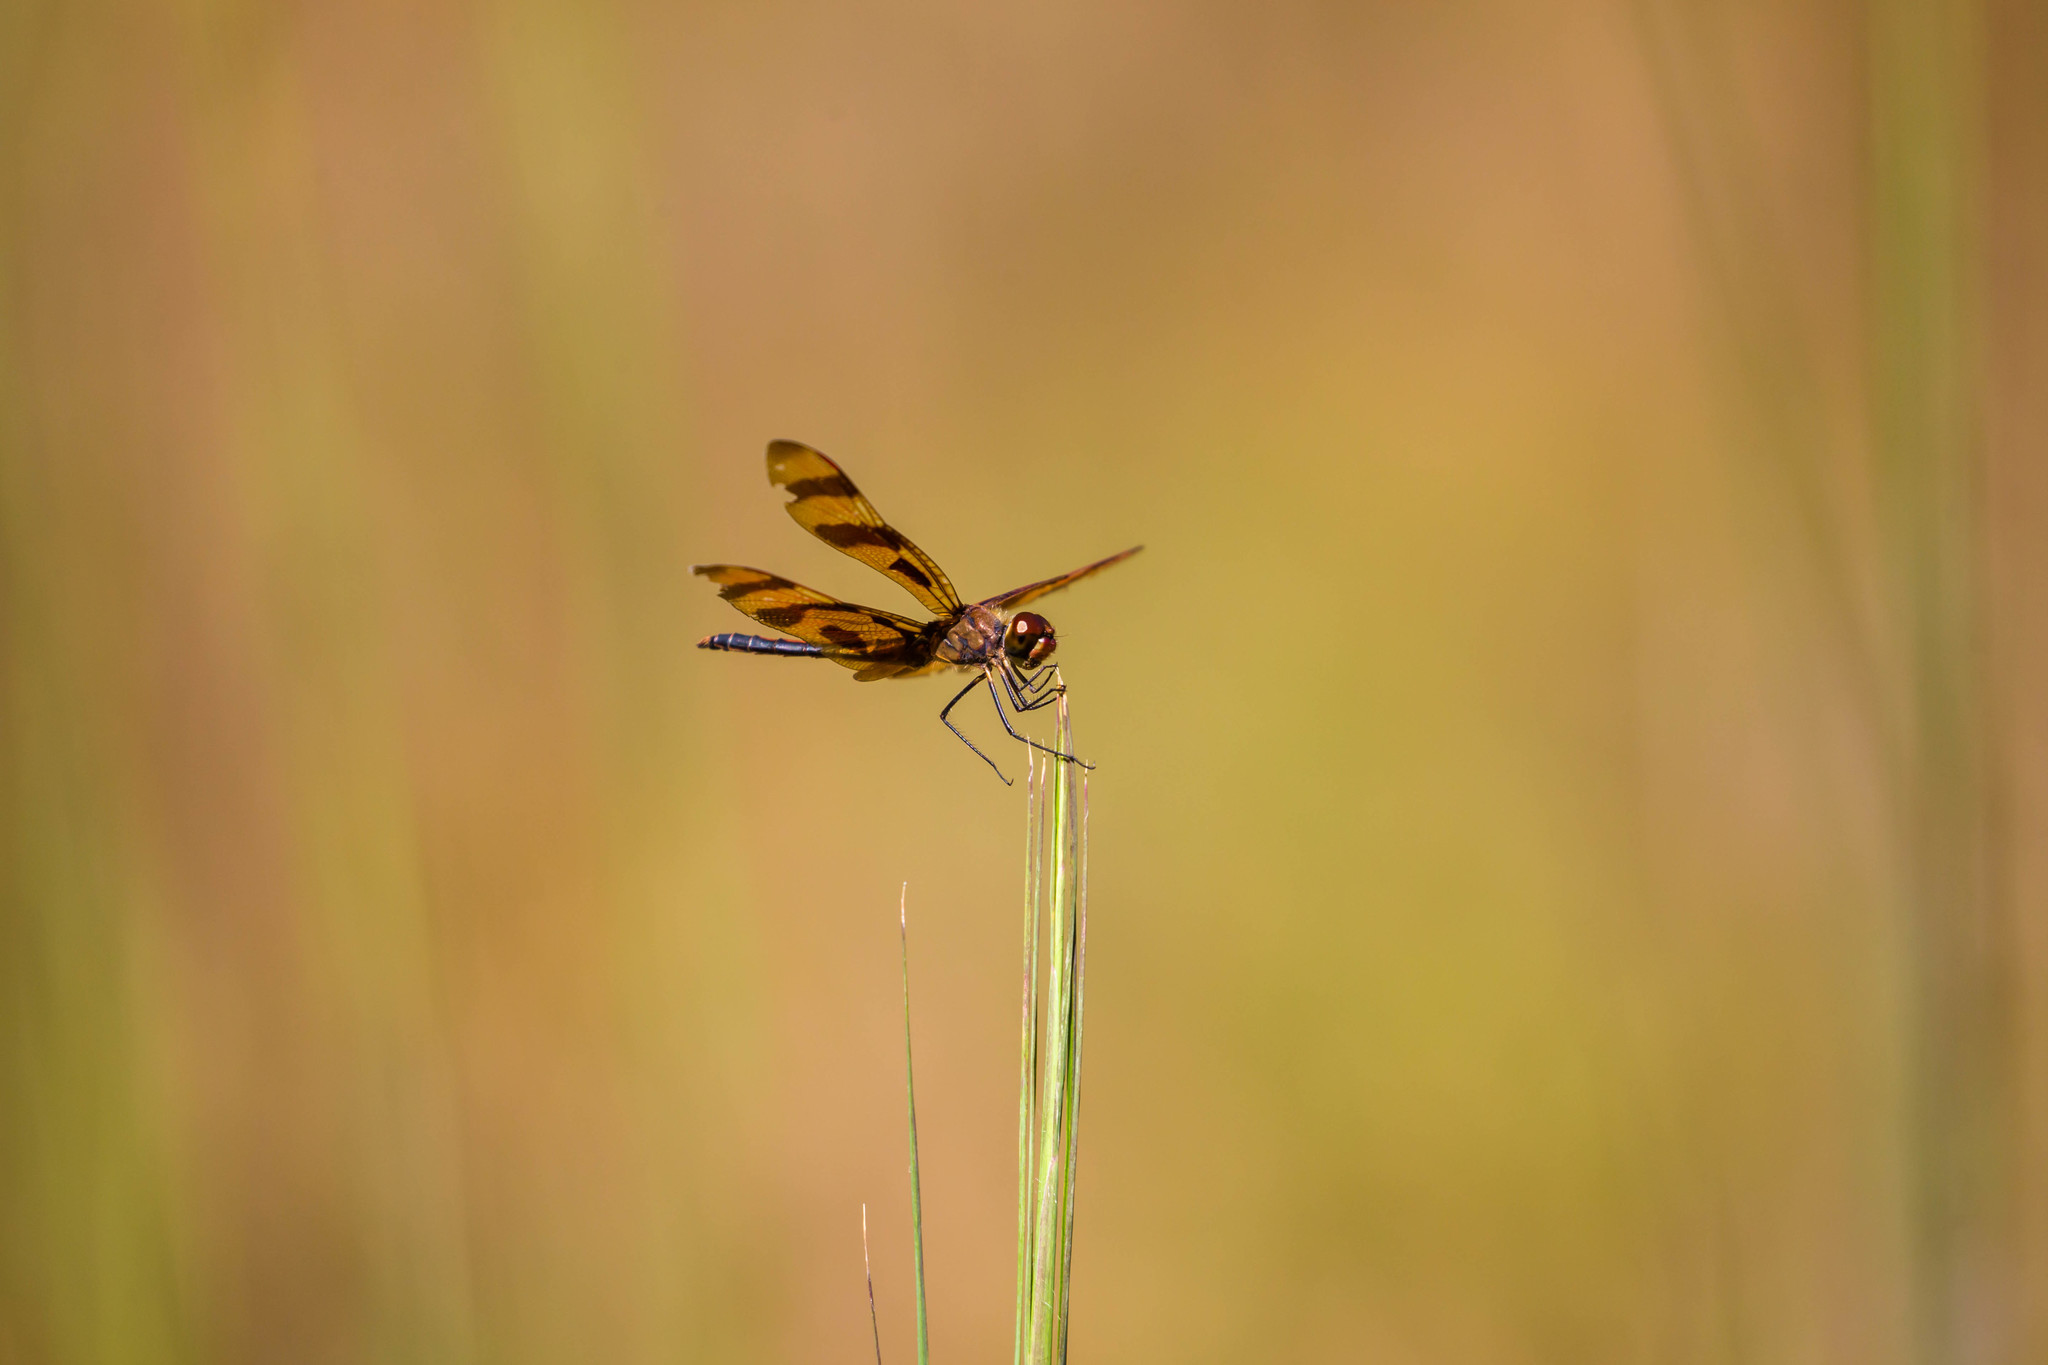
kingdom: Animalia
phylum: Arthropoda
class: Insecta
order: Odonata
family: Libellulidae
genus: Celithemis
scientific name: Celithemis eponina
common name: Halloween pennant
